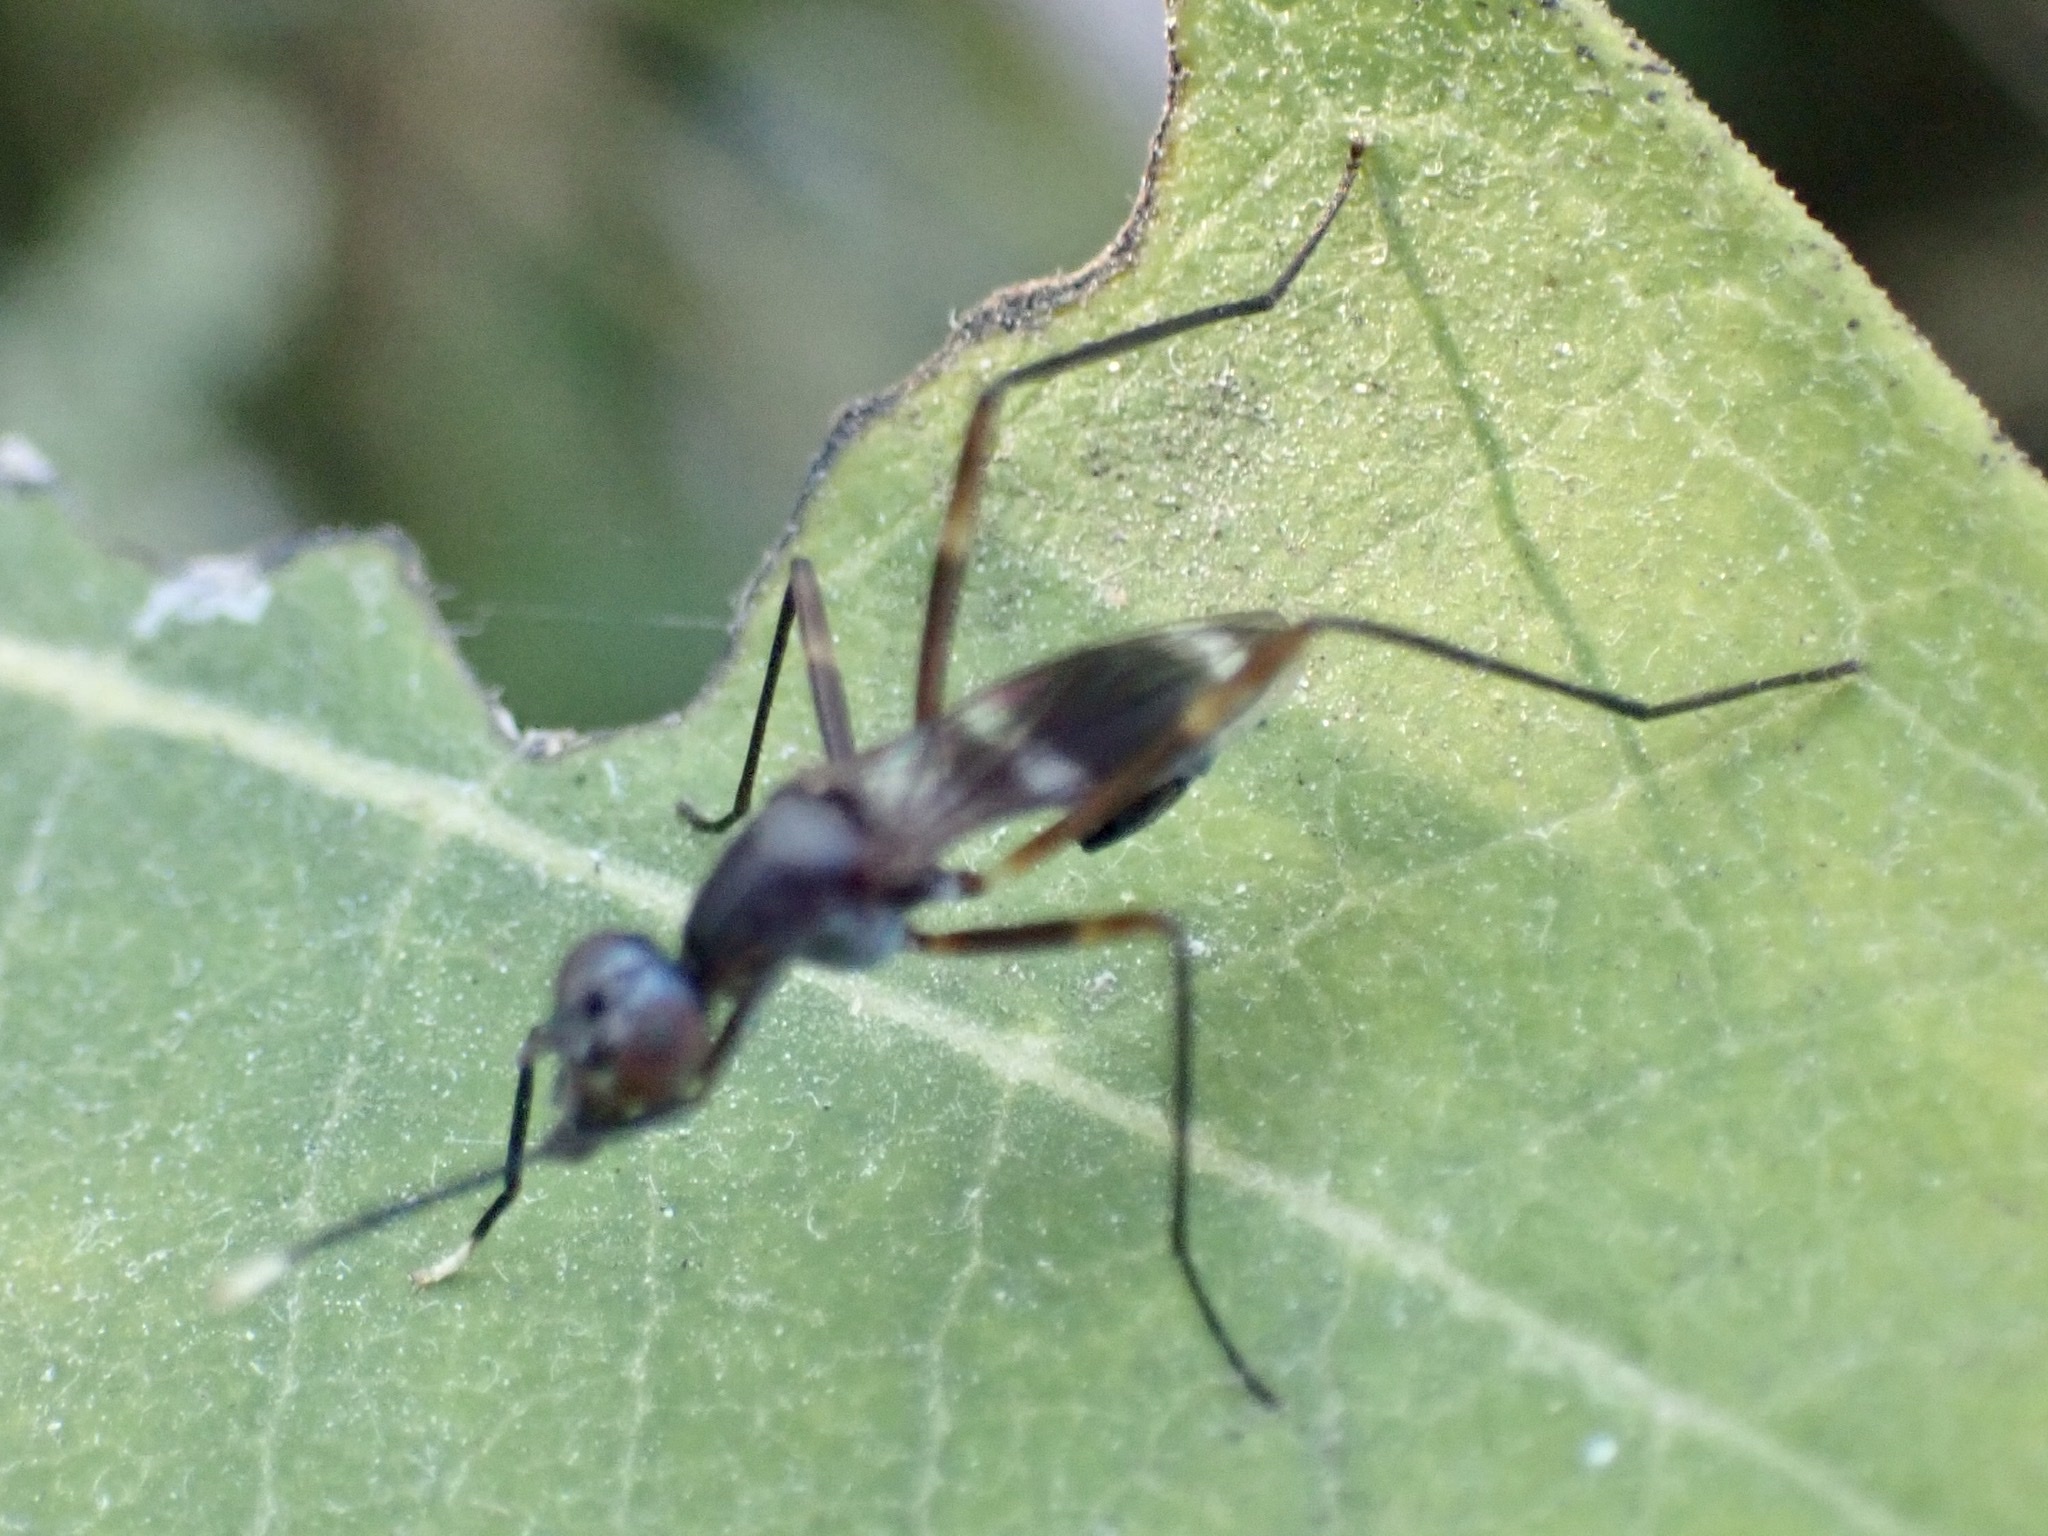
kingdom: Animalia
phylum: Arthropoda
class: Insecta
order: Diptera
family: Micropezidae
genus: Taeniaptera
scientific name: Taeniaptera trivittata
